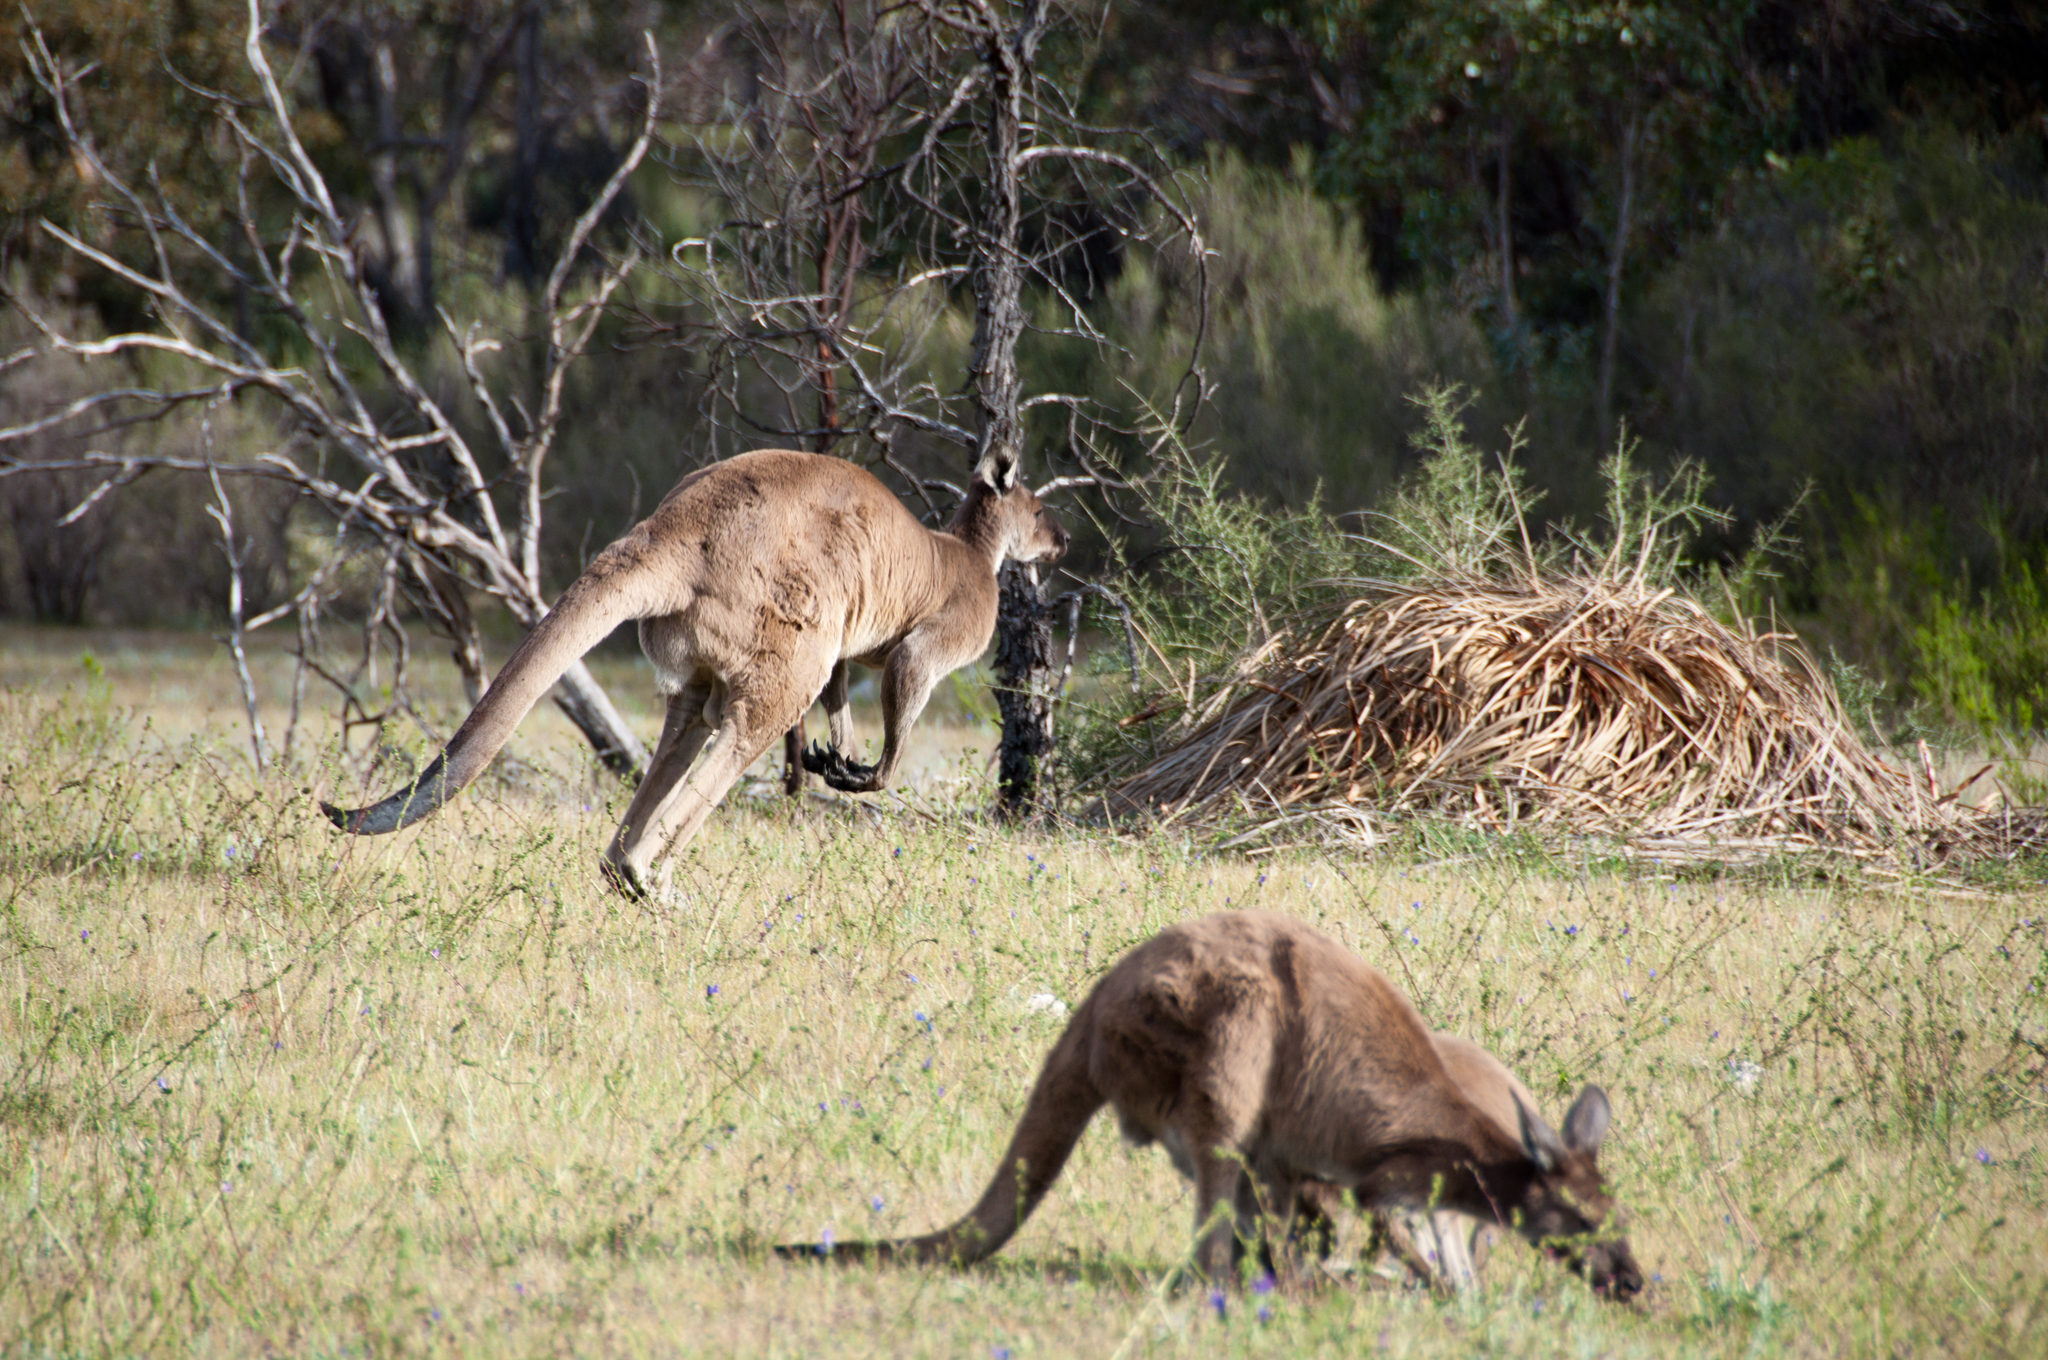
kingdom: Animalia
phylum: Chordata
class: Mammalia
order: Diprotodontia
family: Macropodidae
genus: Macropus
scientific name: Macropus fuliginosus
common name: Western grey kangaroo
